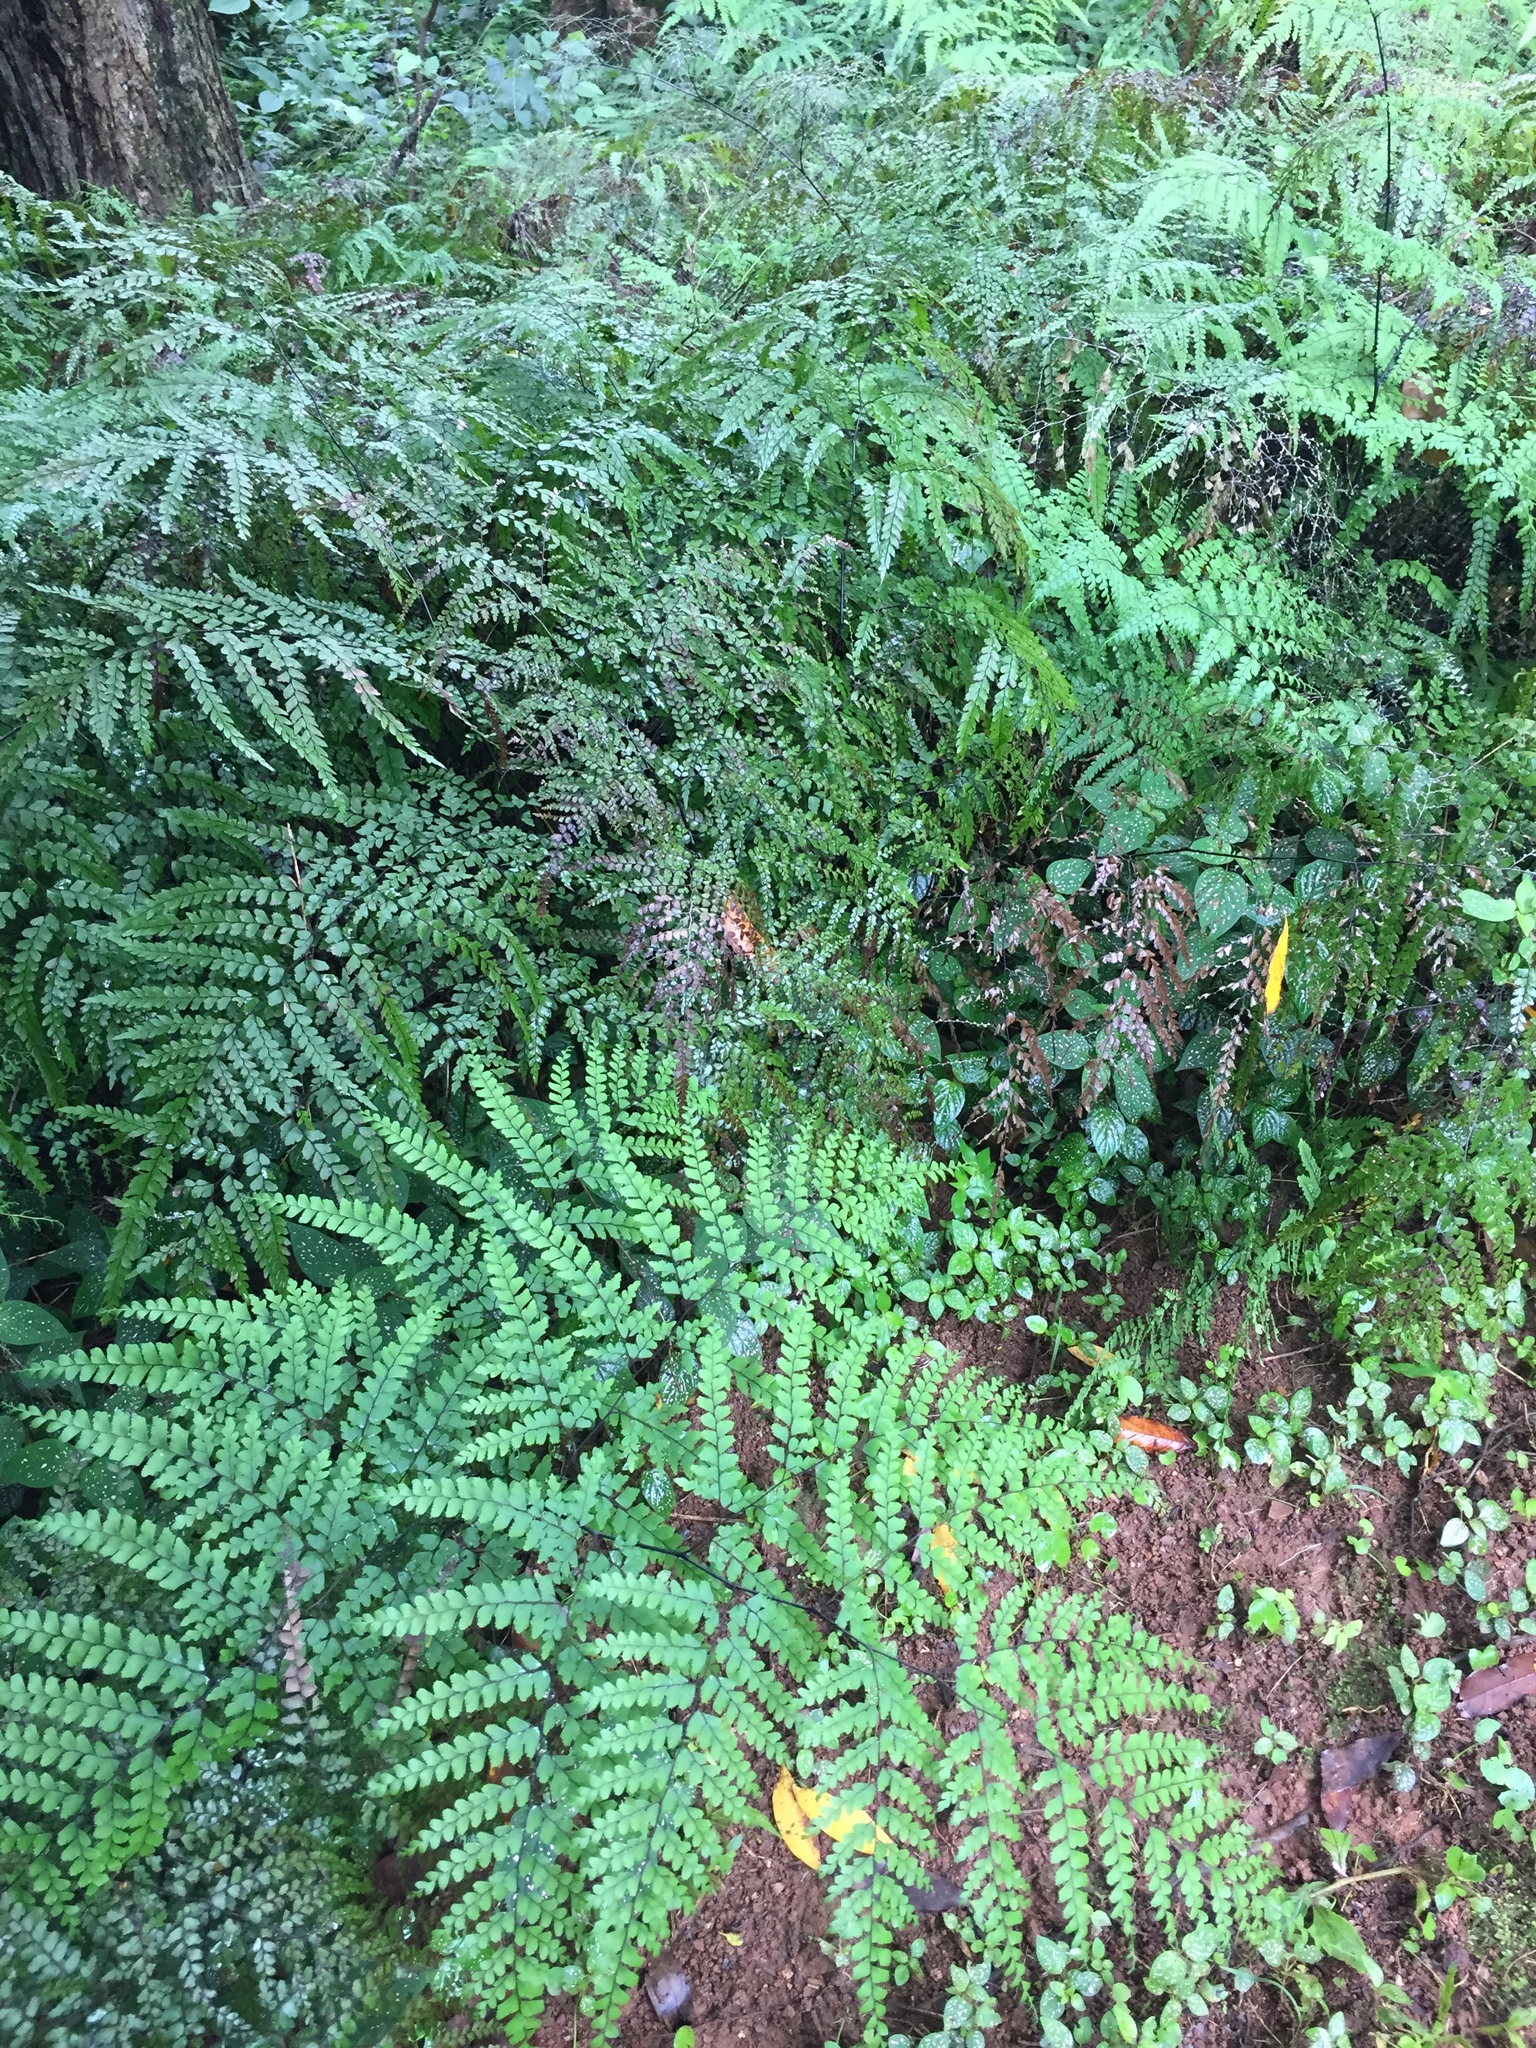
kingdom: Plantae
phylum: Tracheophyta
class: Polypodiopsida
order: Polypodiales
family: Pteridaceae
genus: Adiantum
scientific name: Adiantum formosum
